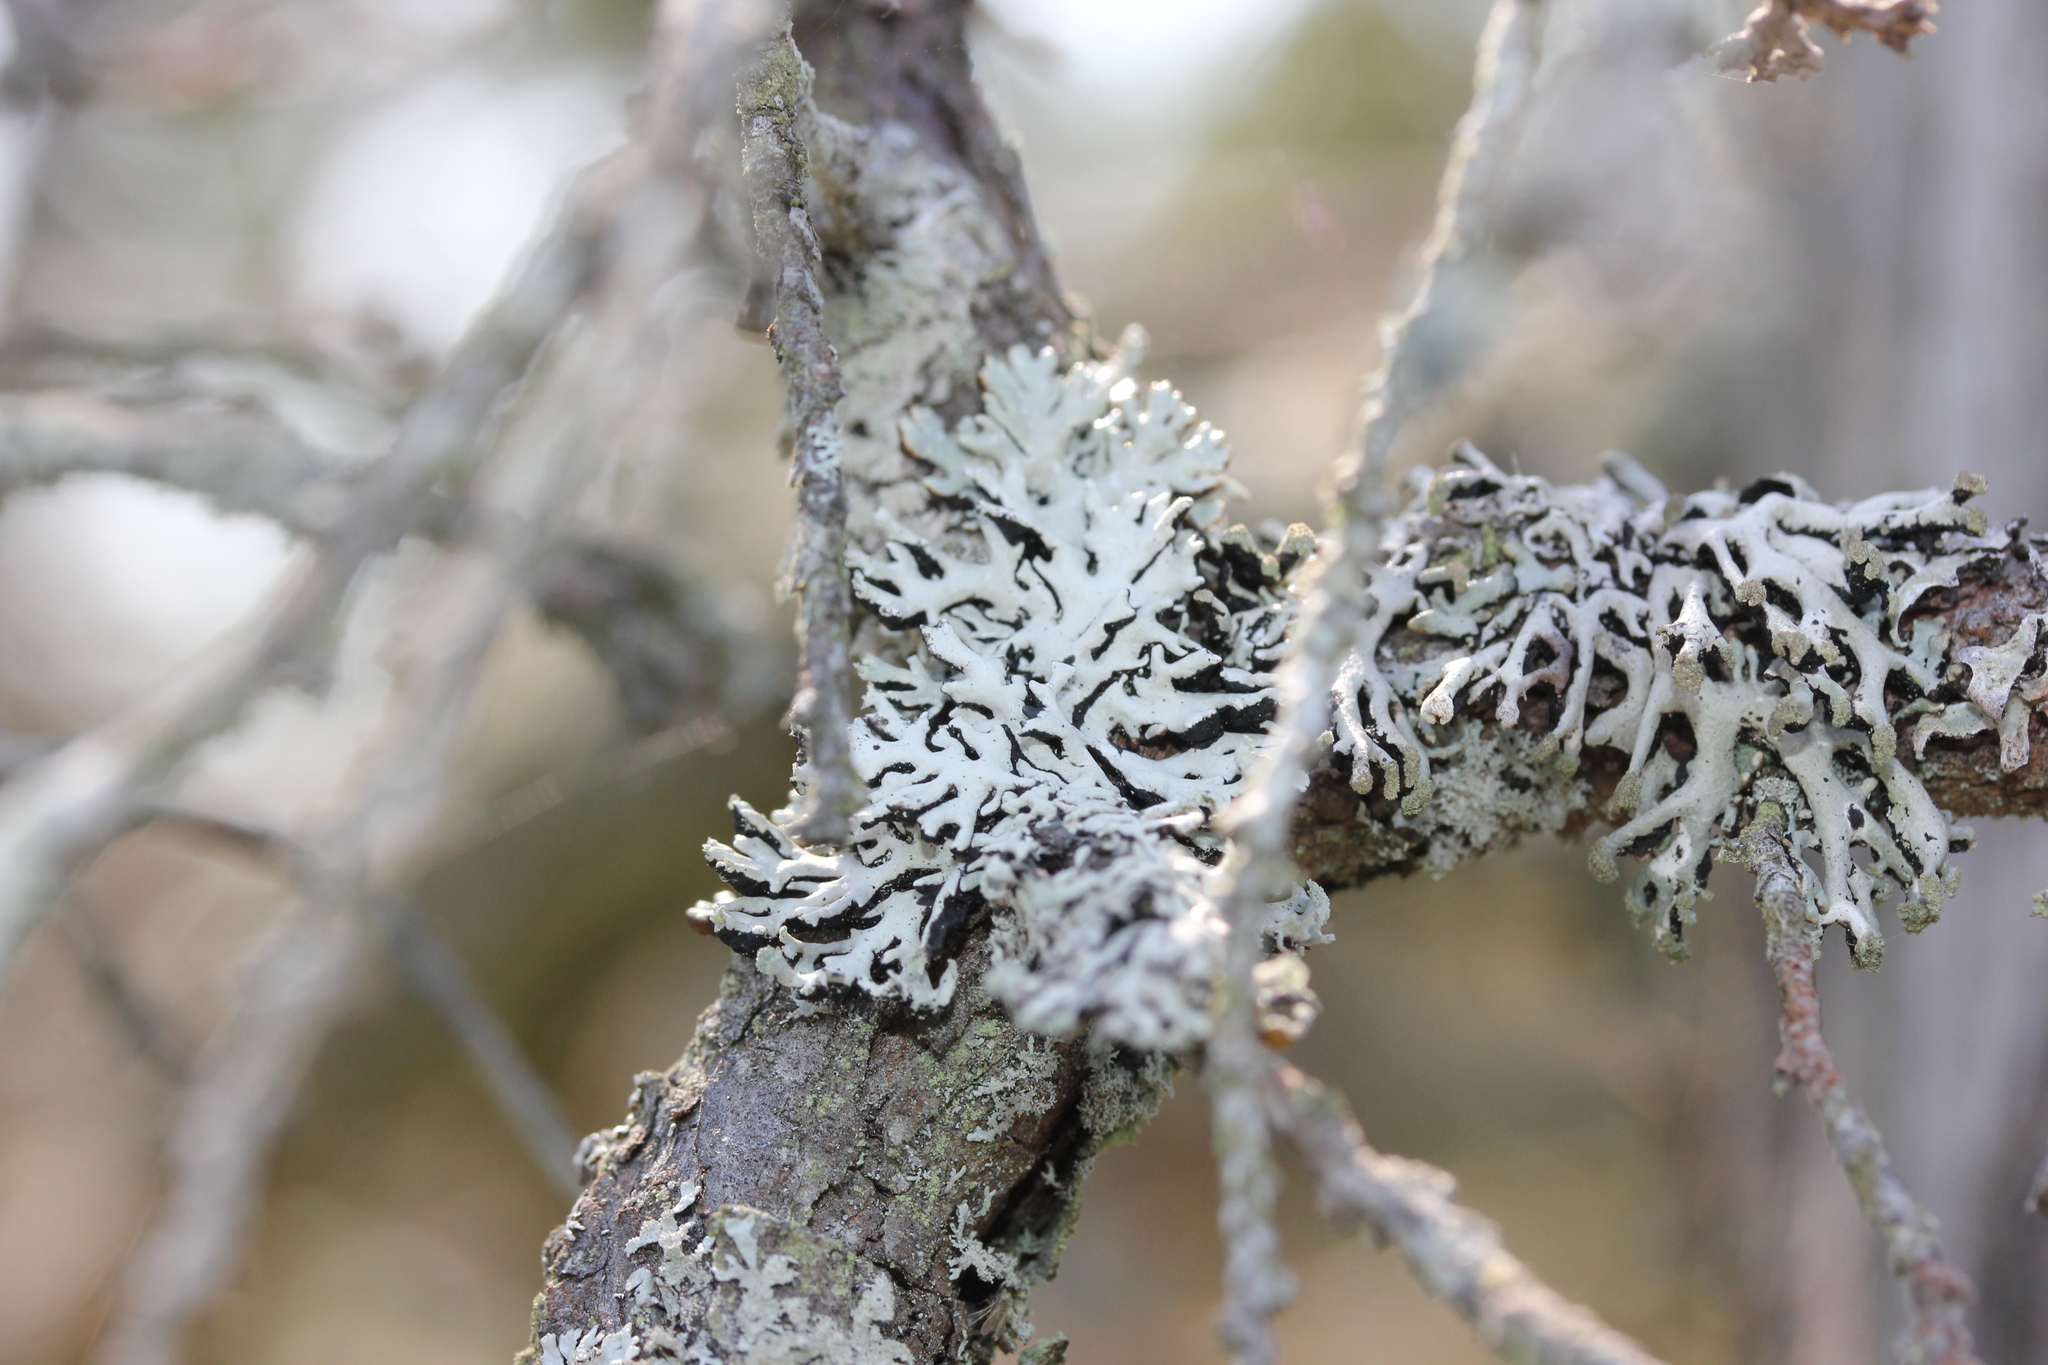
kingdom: Fungi
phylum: Ascomycota
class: Lecanoromycetes
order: Lecanorales
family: Parmeliaceae
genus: Hypogymnia
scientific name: Hypogymnia physodes
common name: Dark crottle
